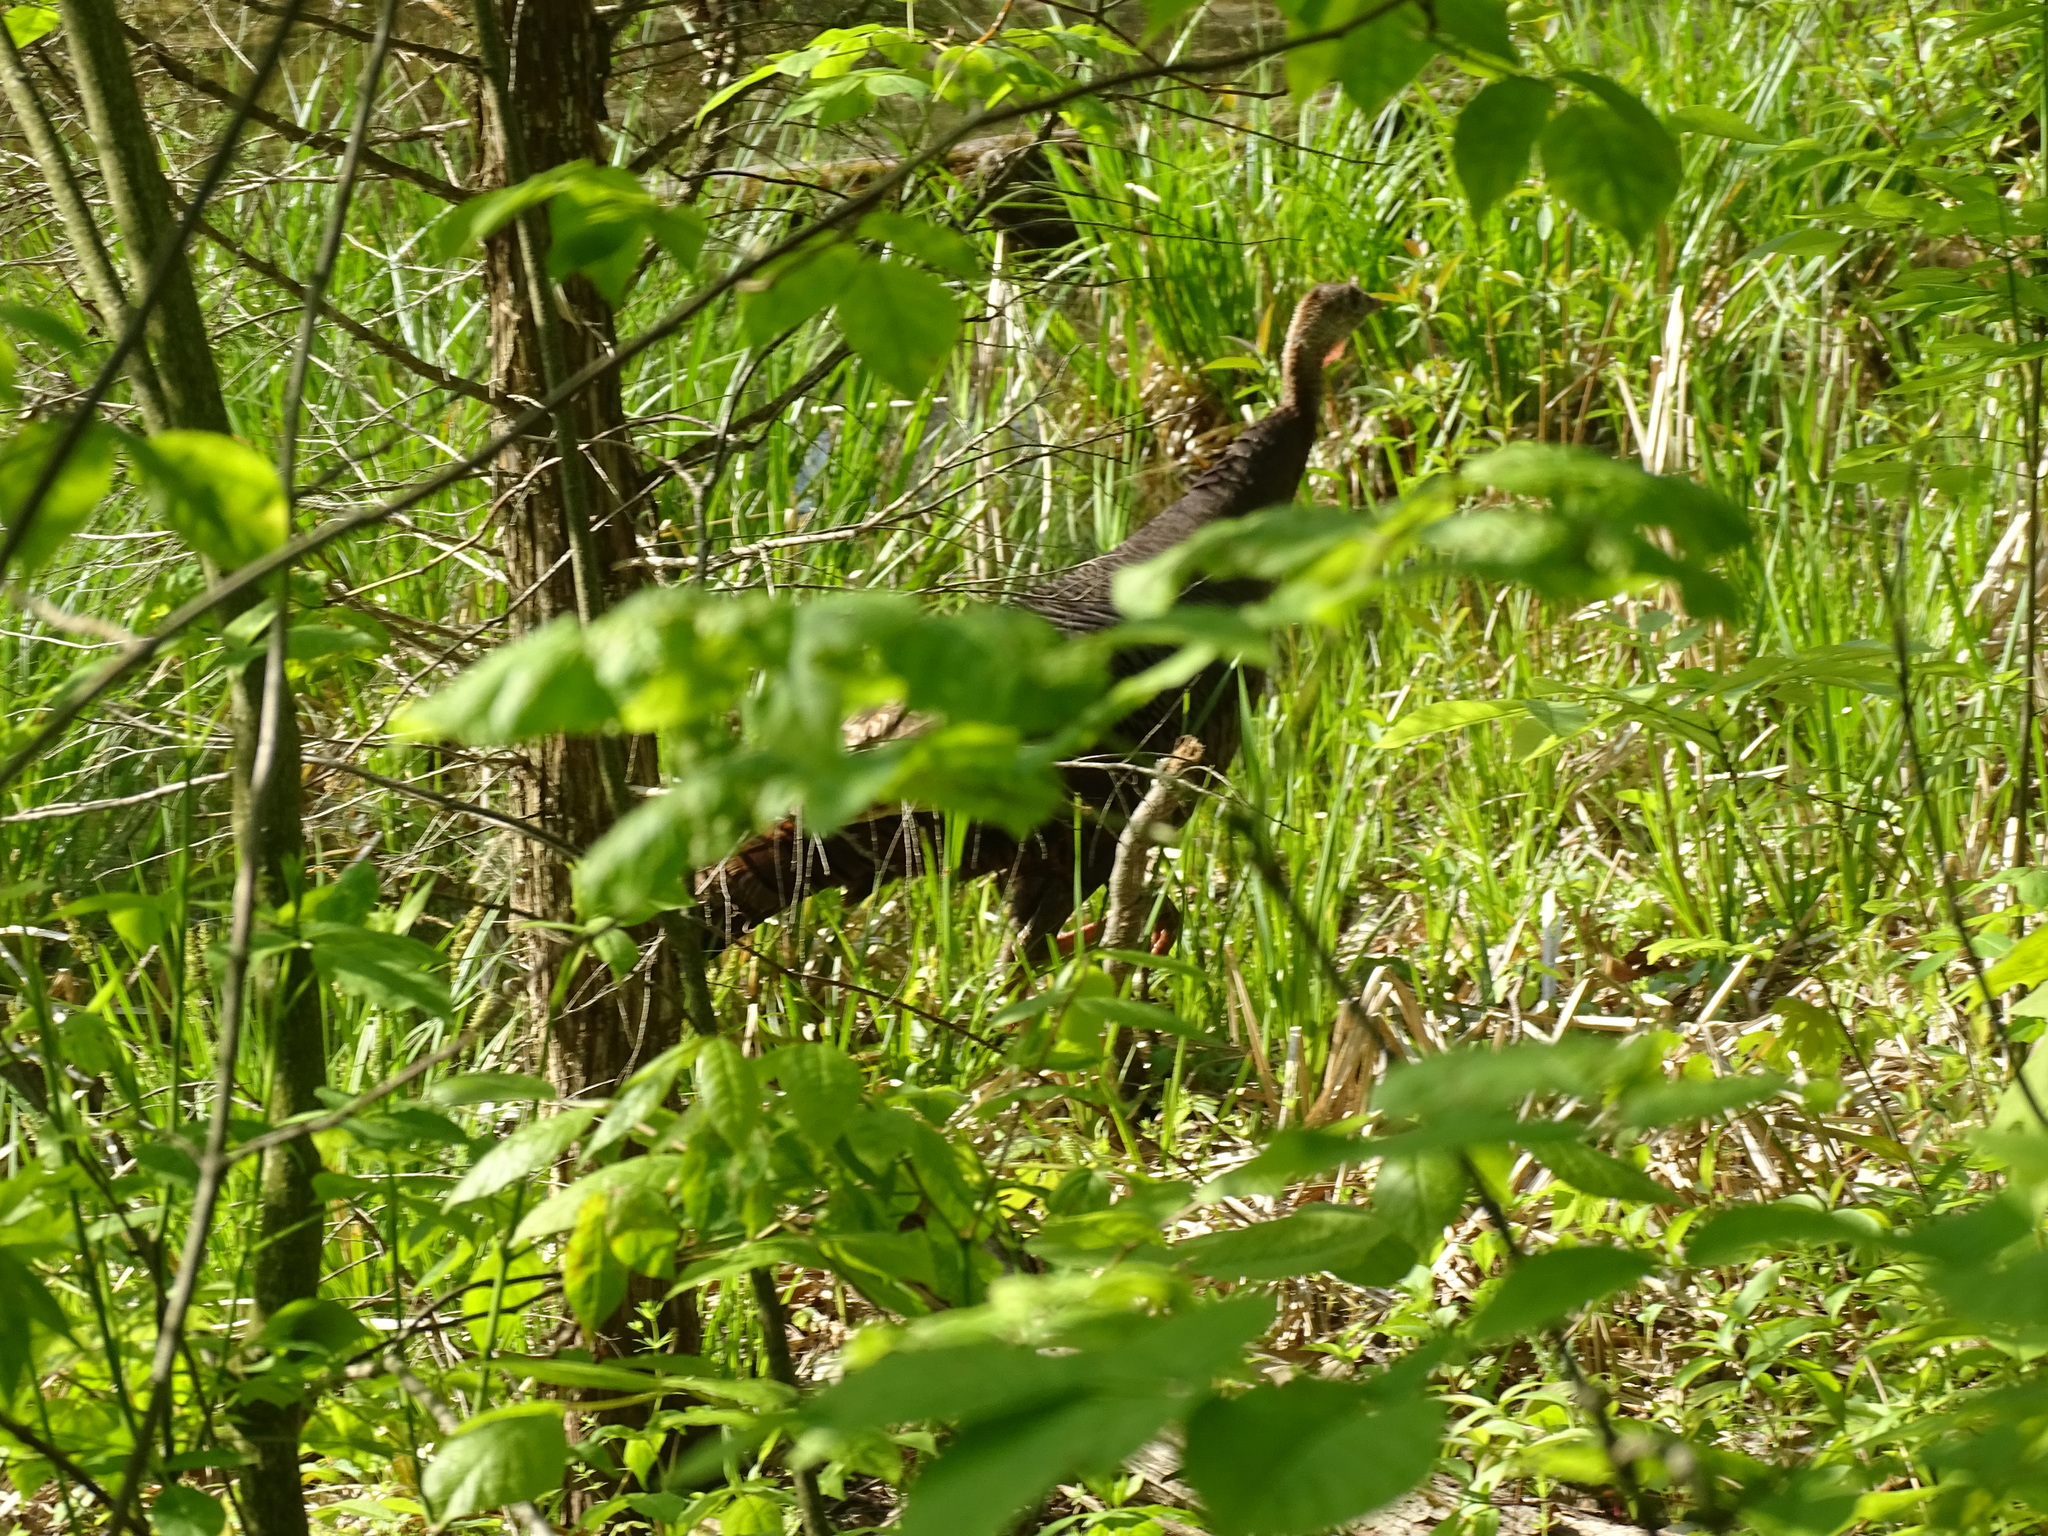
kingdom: Animalia
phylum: Chordata
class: Aves
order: Galliformes
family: Phasianidae
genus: Meleagris
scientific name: Meleagris gallopavo
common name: Wild turkey
